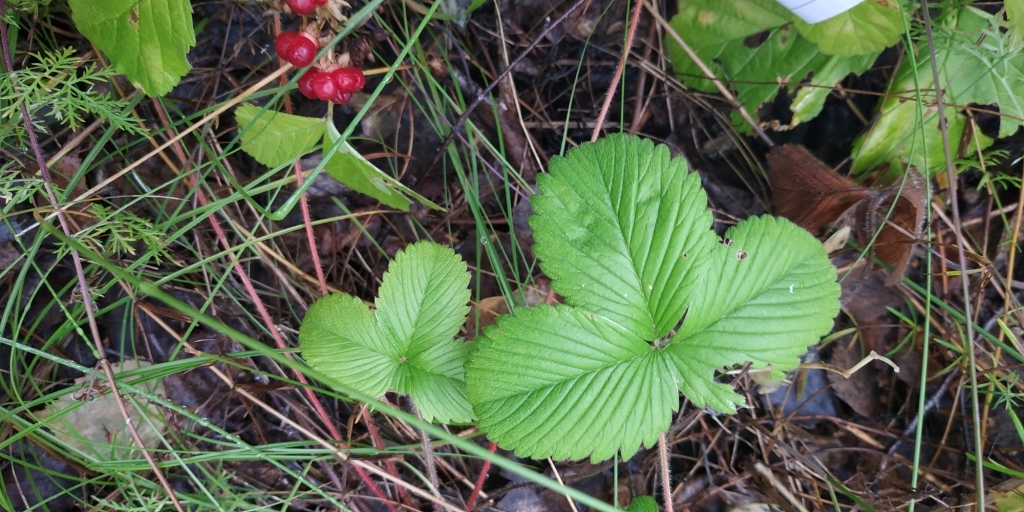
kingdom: Plantae
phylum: Tracheophyta
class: Magnoliopsida
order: Rosales
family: Rosaceae
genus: Fragaria
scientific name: Fragaria viridis
